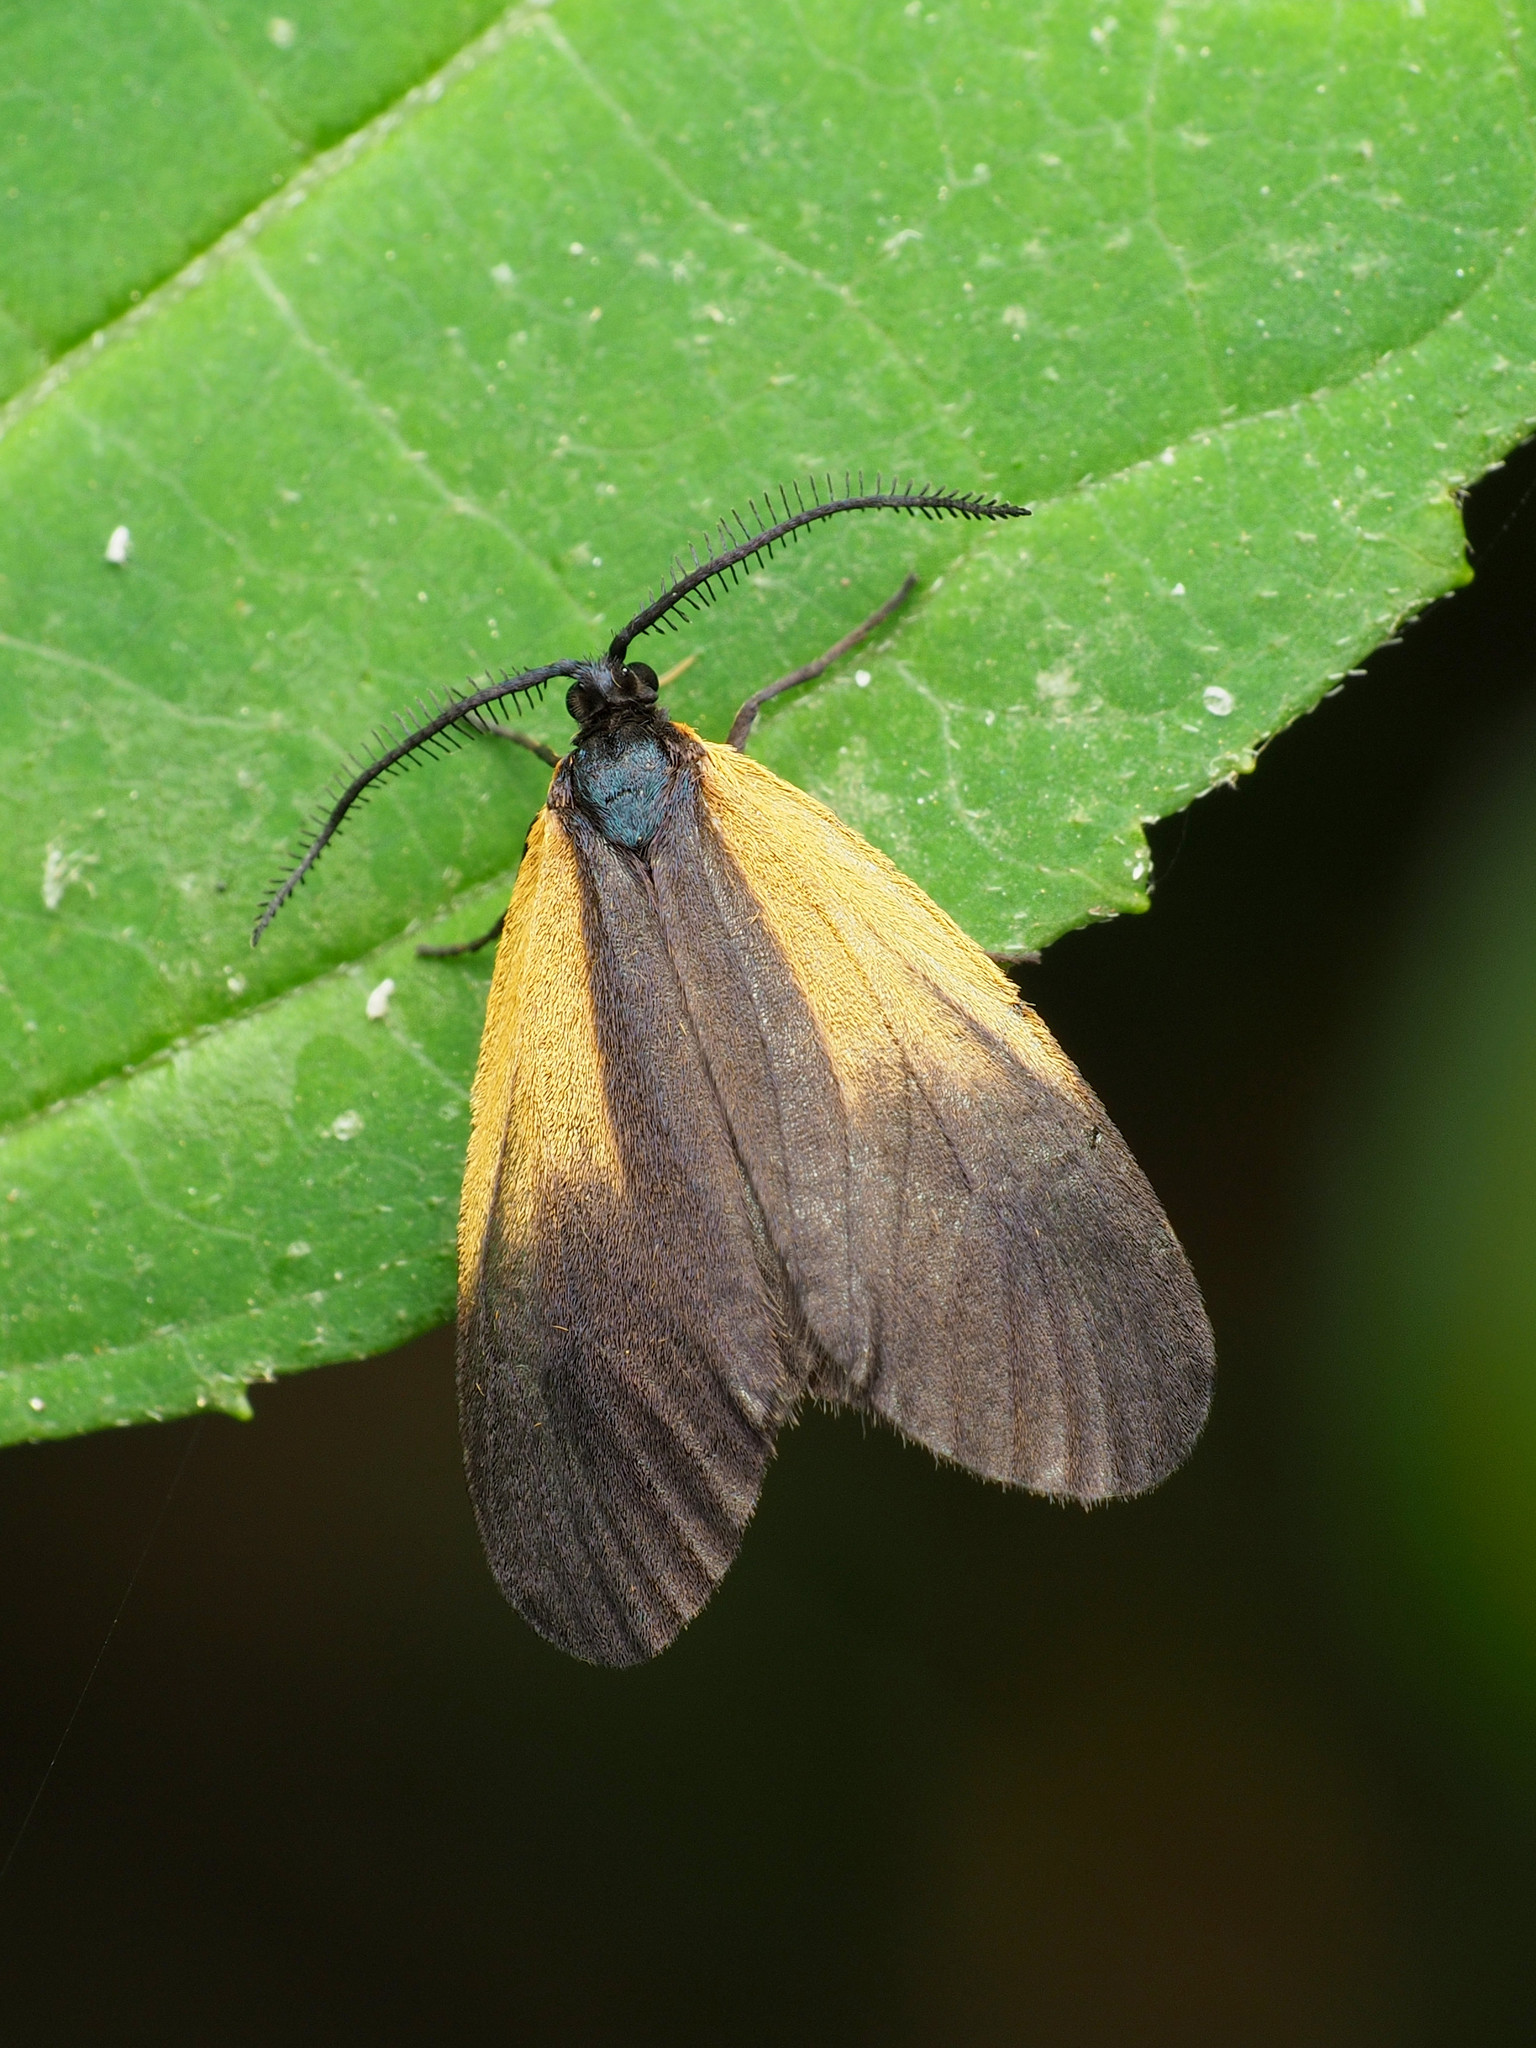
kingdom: Animalia
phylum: Arthropoda
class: Insecta
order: Lepidoptera
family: Zygaenidae
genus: Malthaca
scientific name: Malthaca dimidiata
